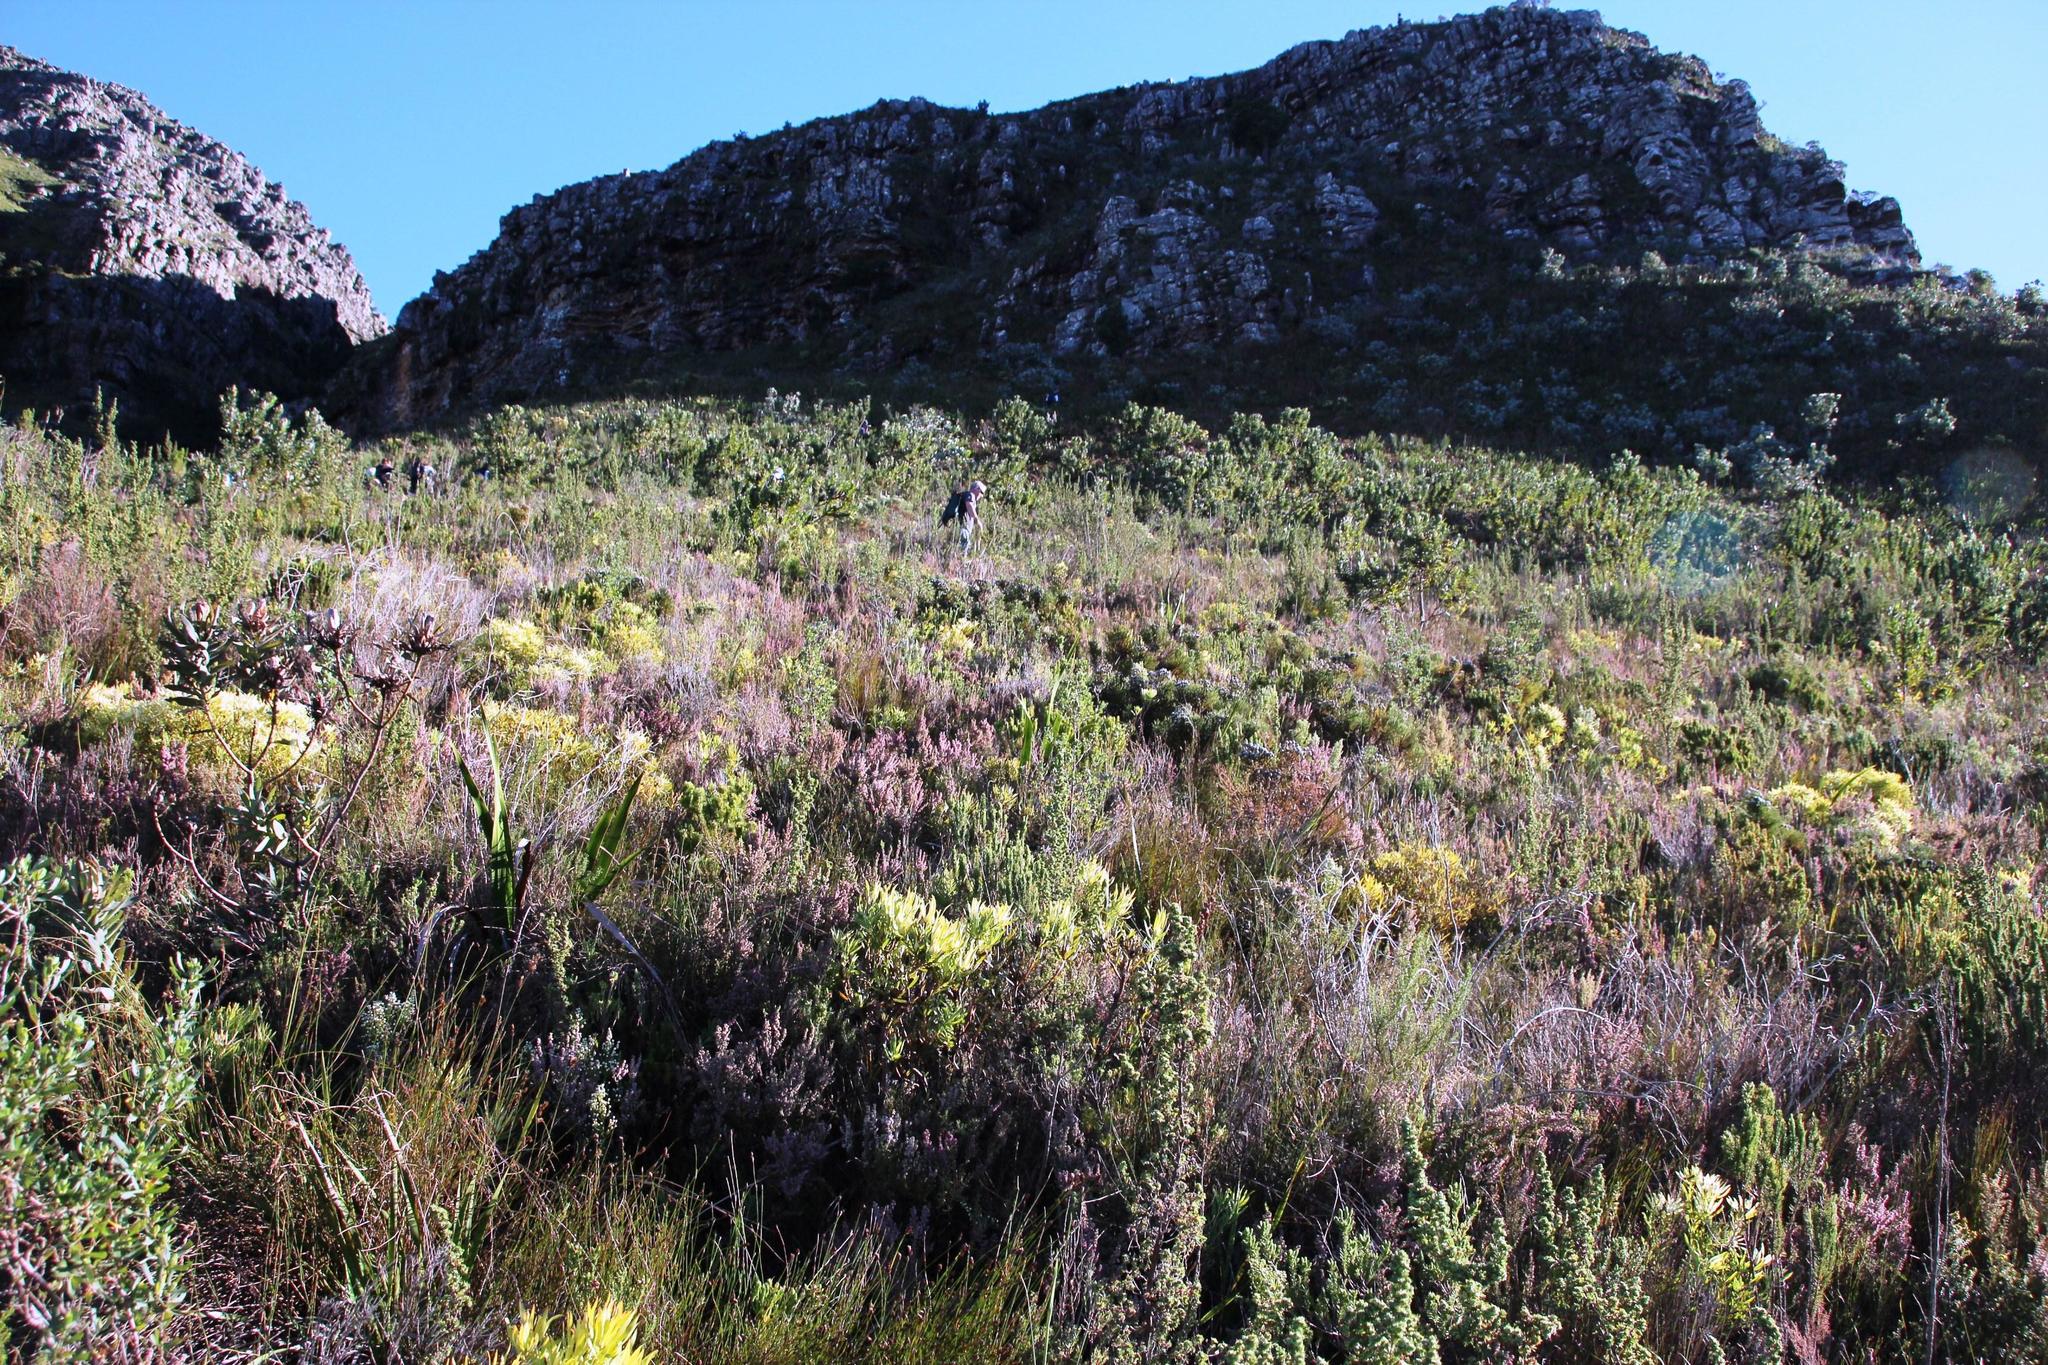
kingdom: Plantae
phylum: Tracheophyta
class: Magnoliopsida
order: Ericales
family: Ericaceae
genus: Erica
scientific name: Erica hispidula
